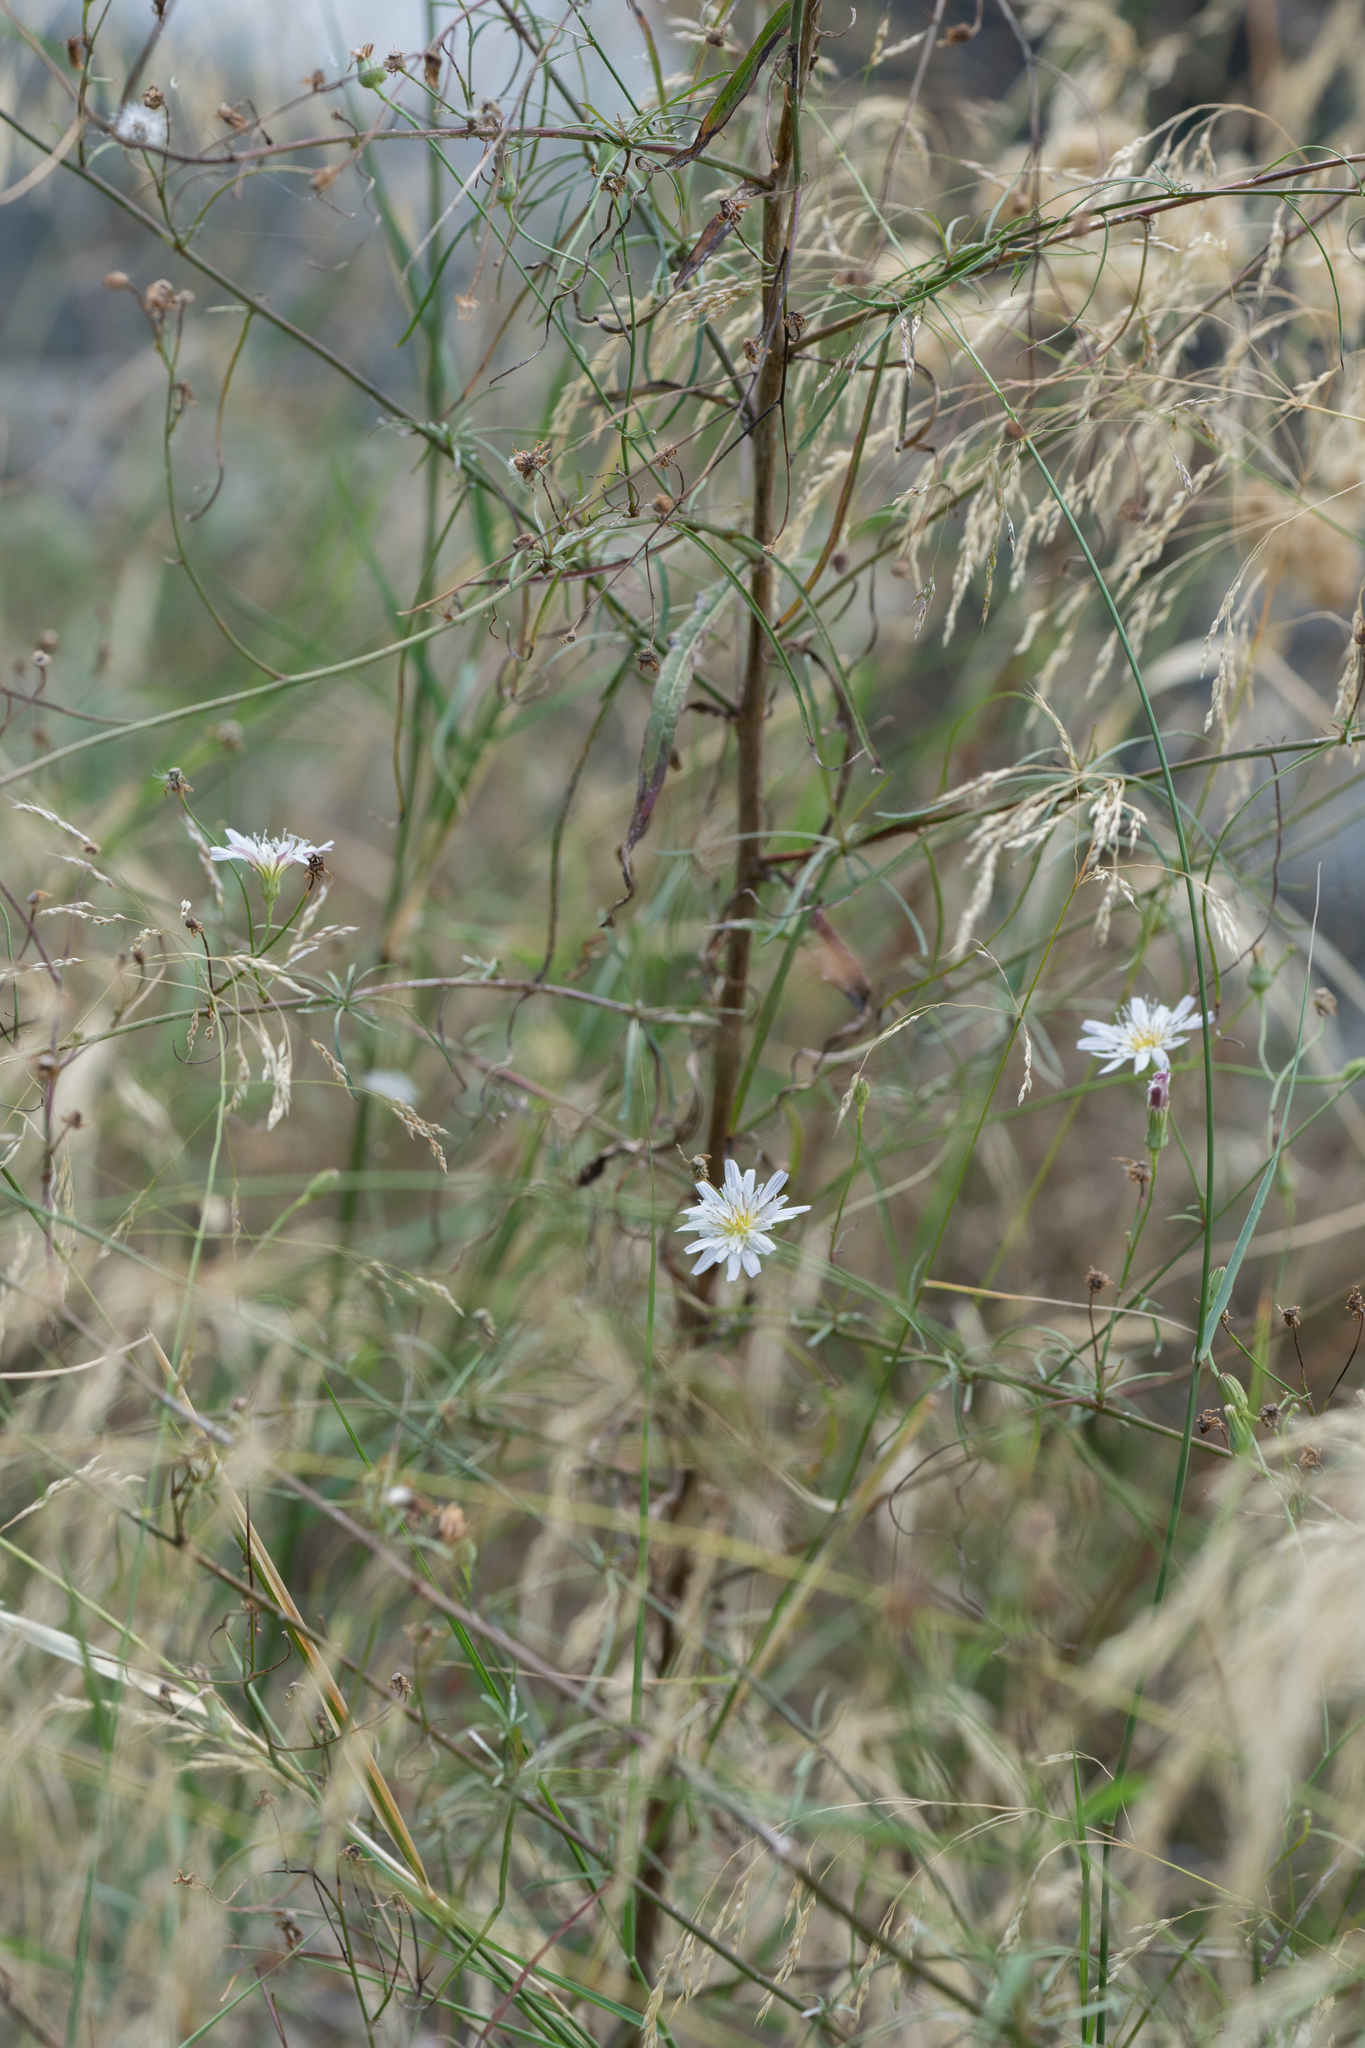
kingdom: Plantae
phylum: Tracheophyta
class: Magnoliopsida
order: Asterales
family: Asteraceae
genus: Malacothrix
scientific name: Malacothrix saxatilis
